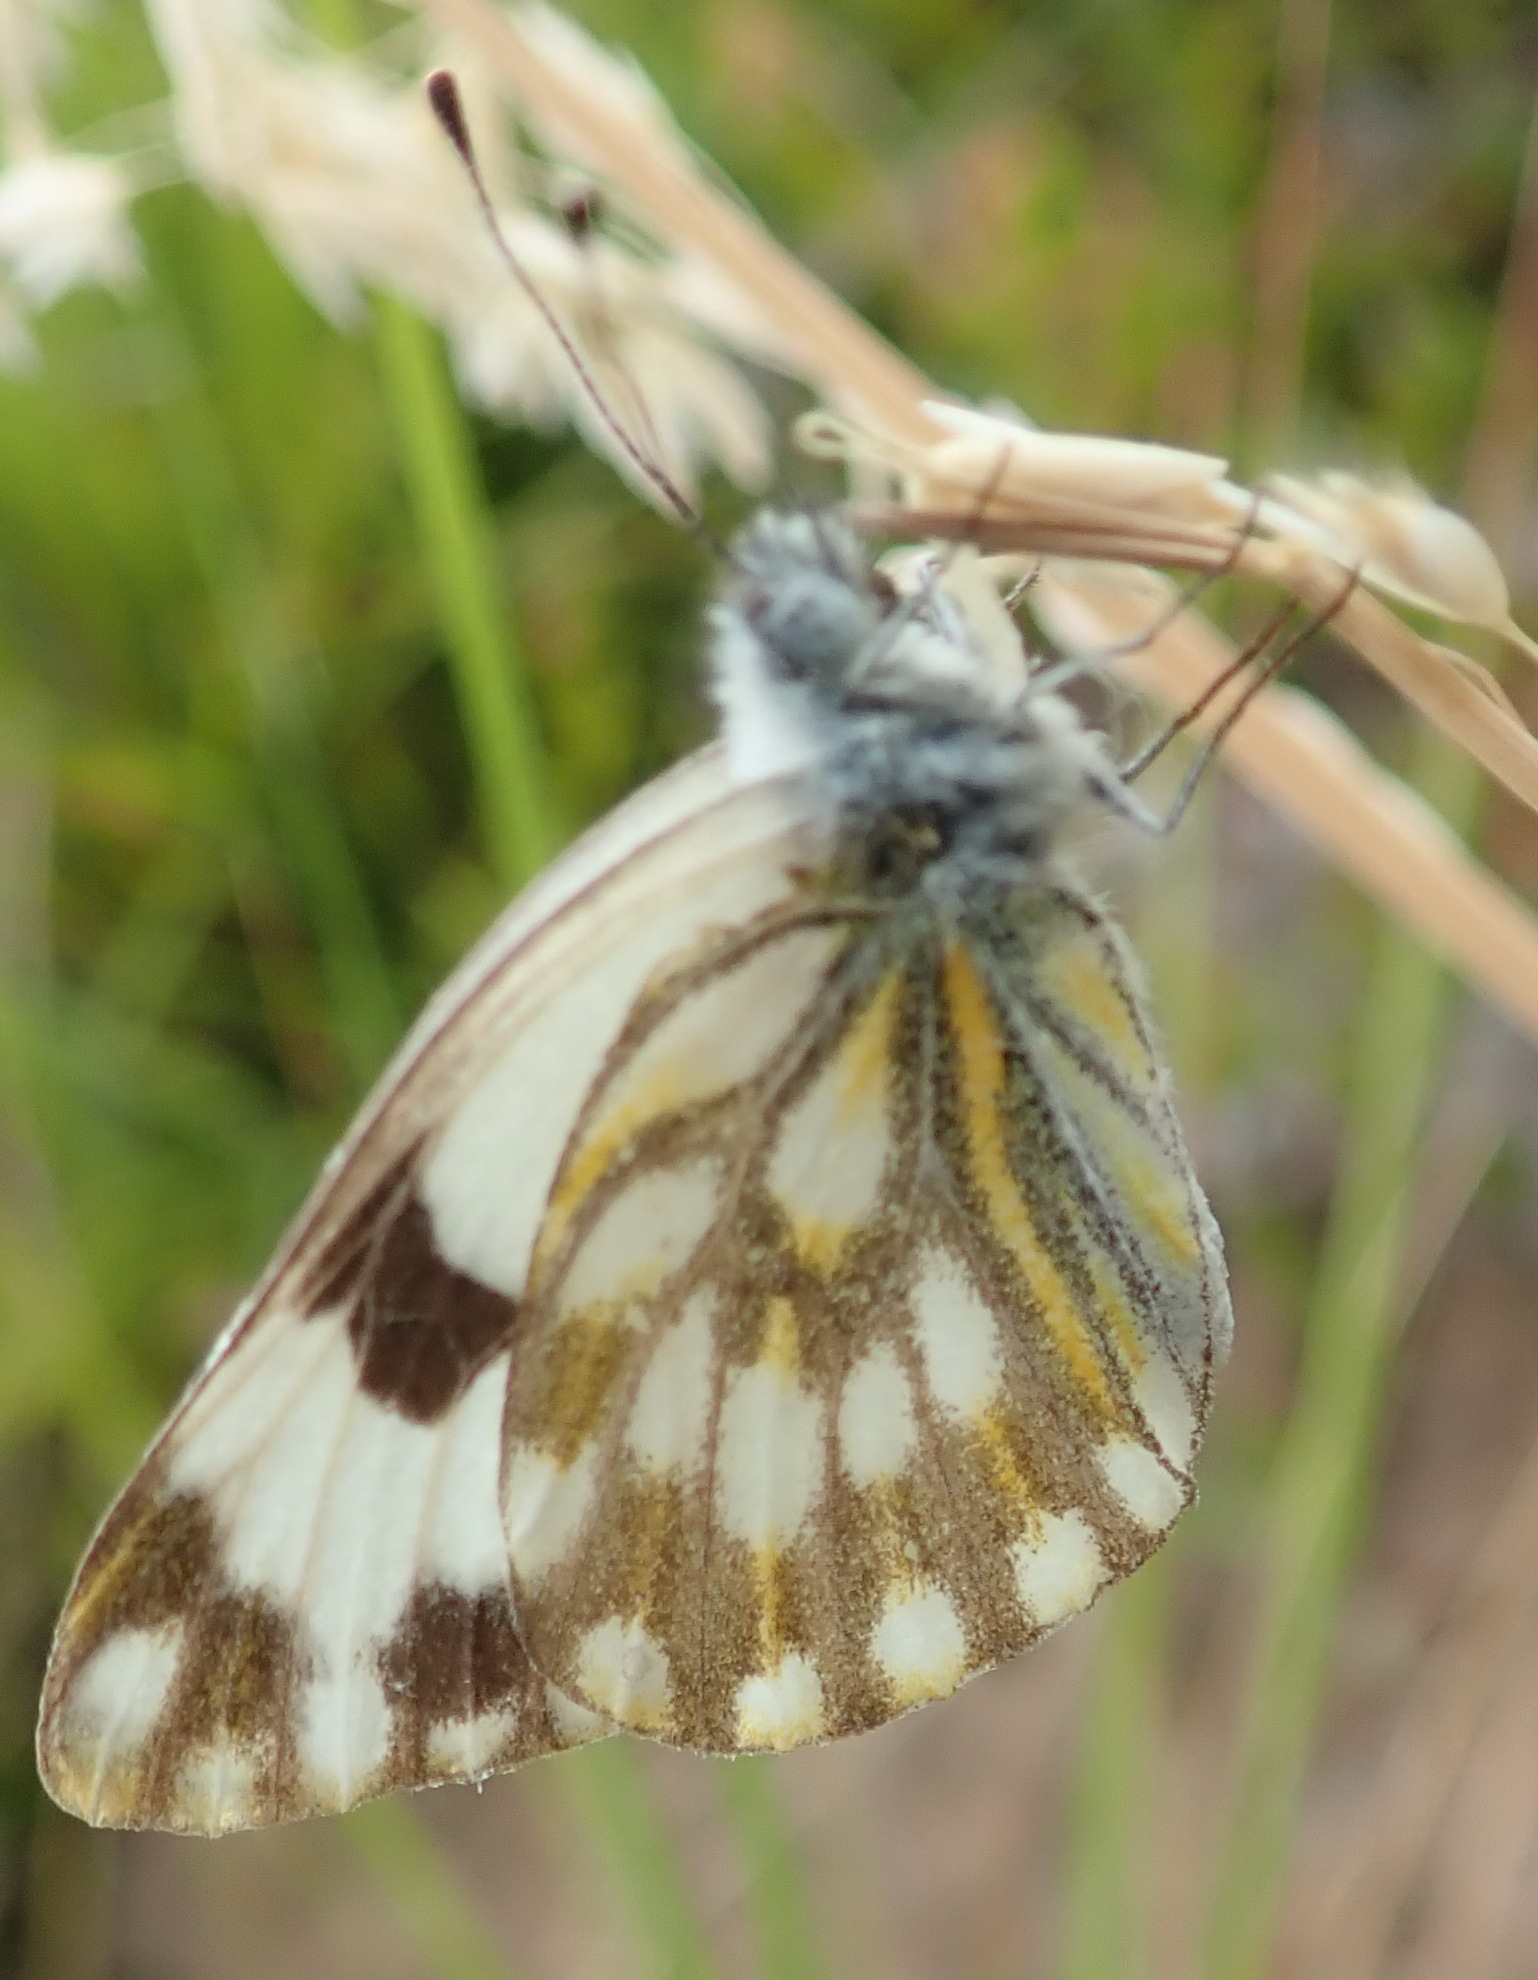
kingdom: Animalia
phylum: Arthropoda
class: Insecta
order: Lepidoptera
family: Pieridae
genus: Pontia
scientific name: Pontia helice
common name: Meadow white
